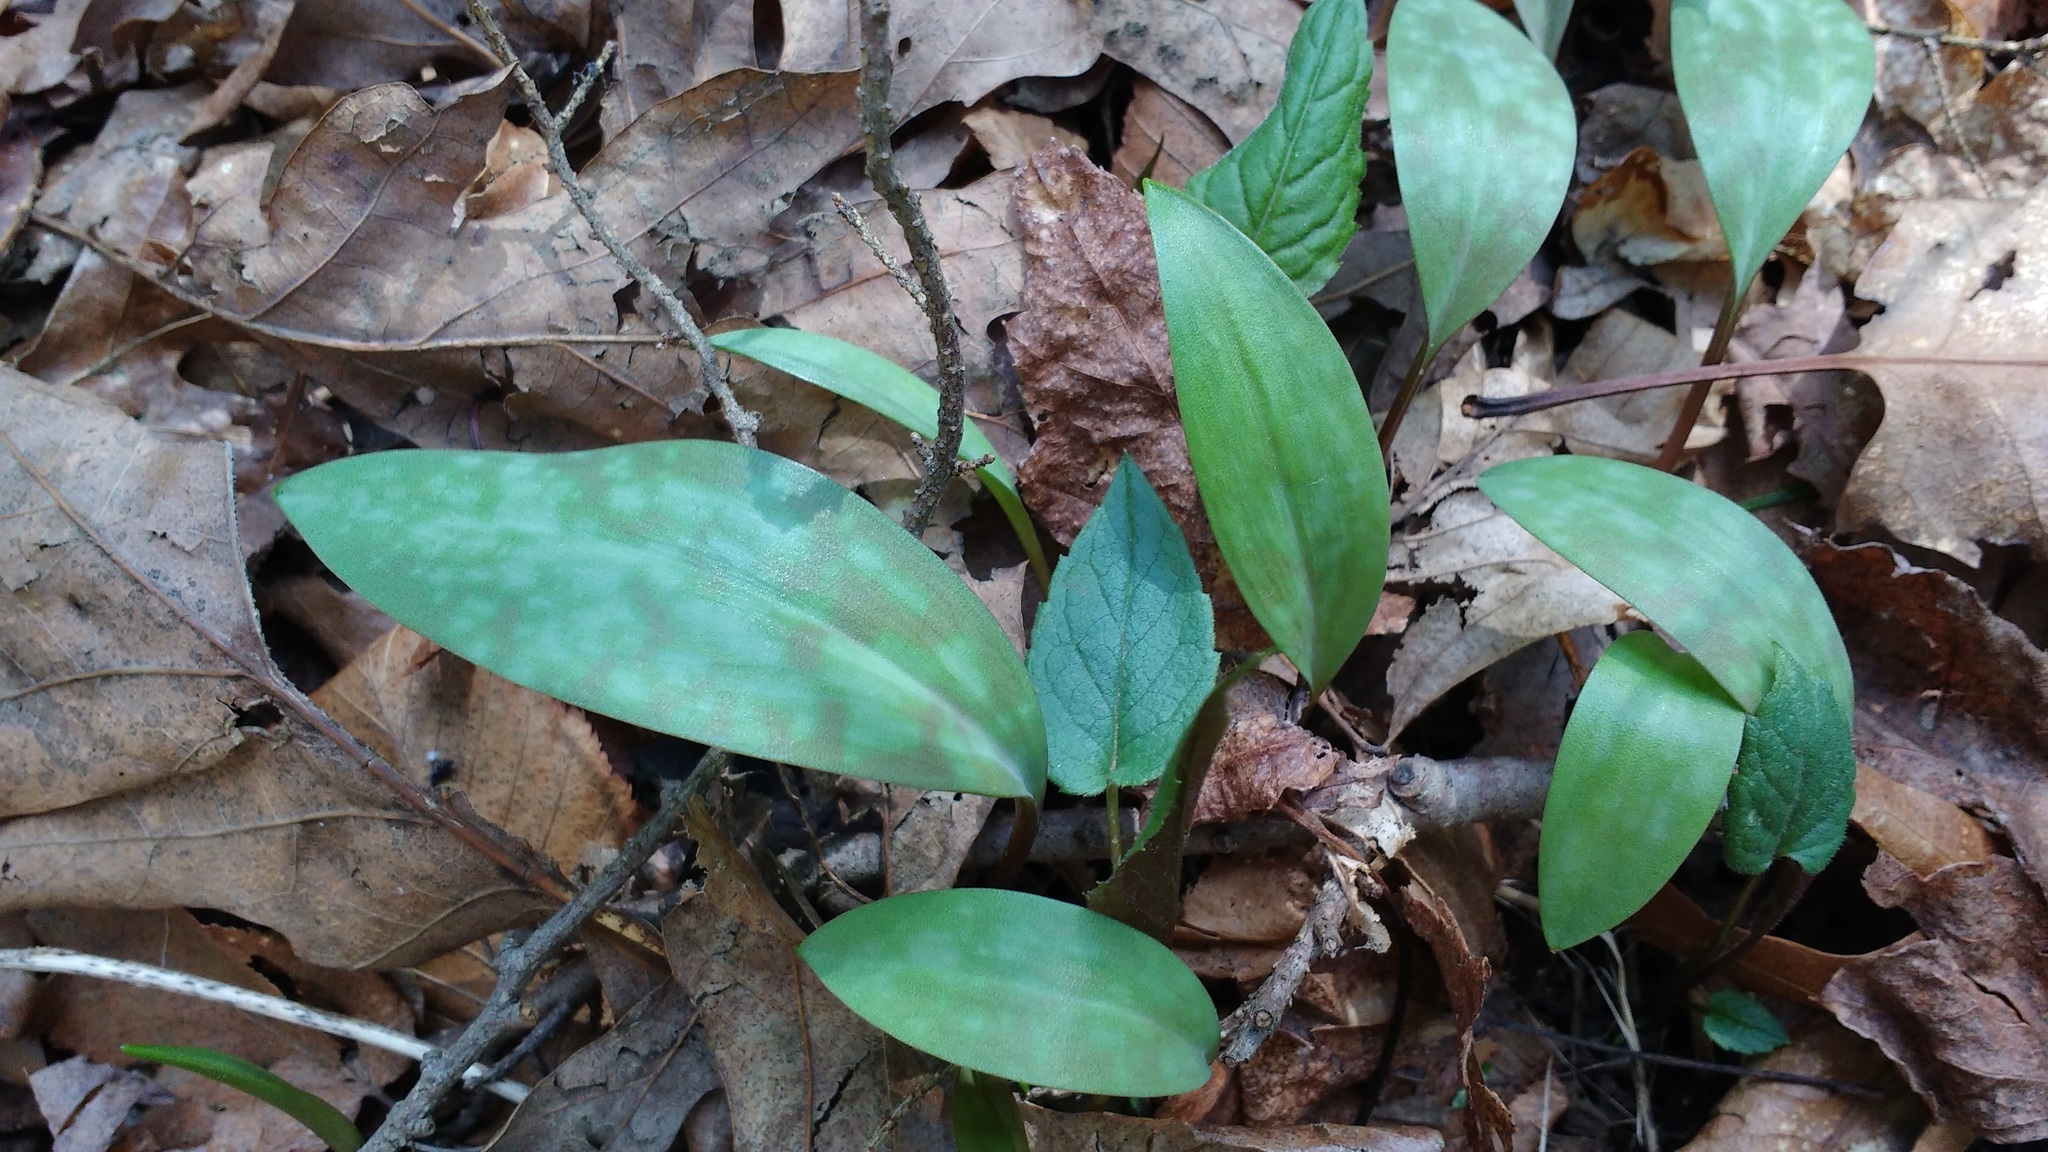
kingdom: Plantae
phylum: Tracheophyta
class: Liliopsida
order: Liliales
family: Liliaceae
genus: Erythronium
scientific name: Erythronium americanum
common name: Yellow adder's-tongue
